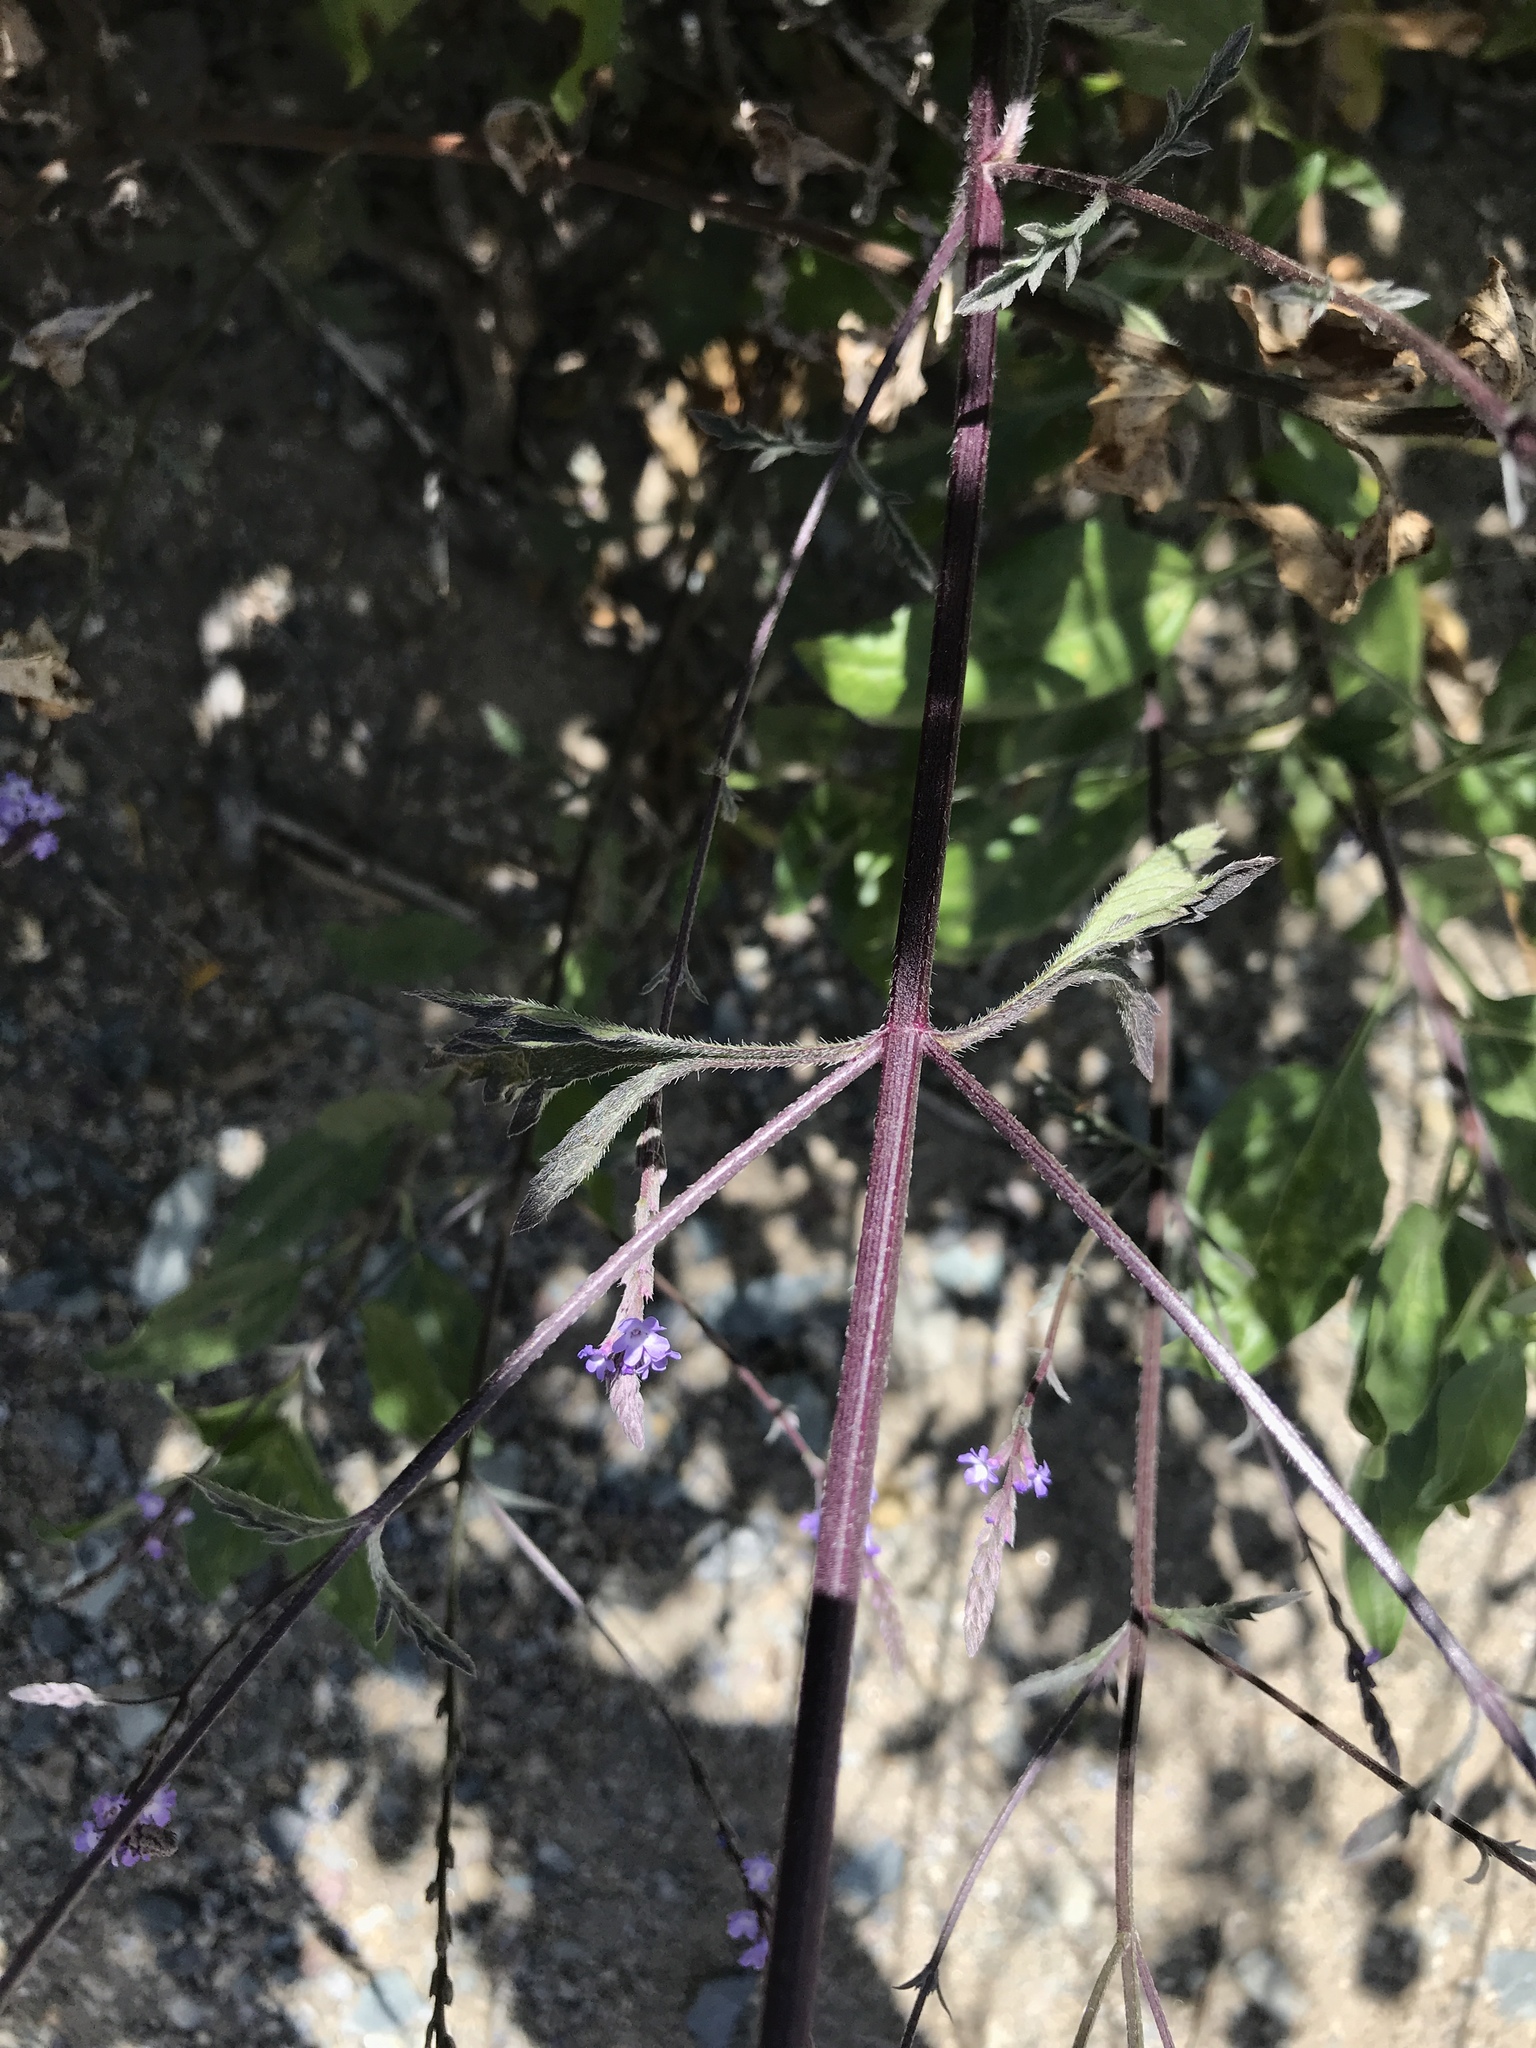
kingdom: Plantae
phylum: Tracheophyta
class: Magnoliopsida
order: Lamiales
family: Verbenaceae
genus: Verbena
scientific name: Verbena menthifolia
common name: Mint-leaf vervain
